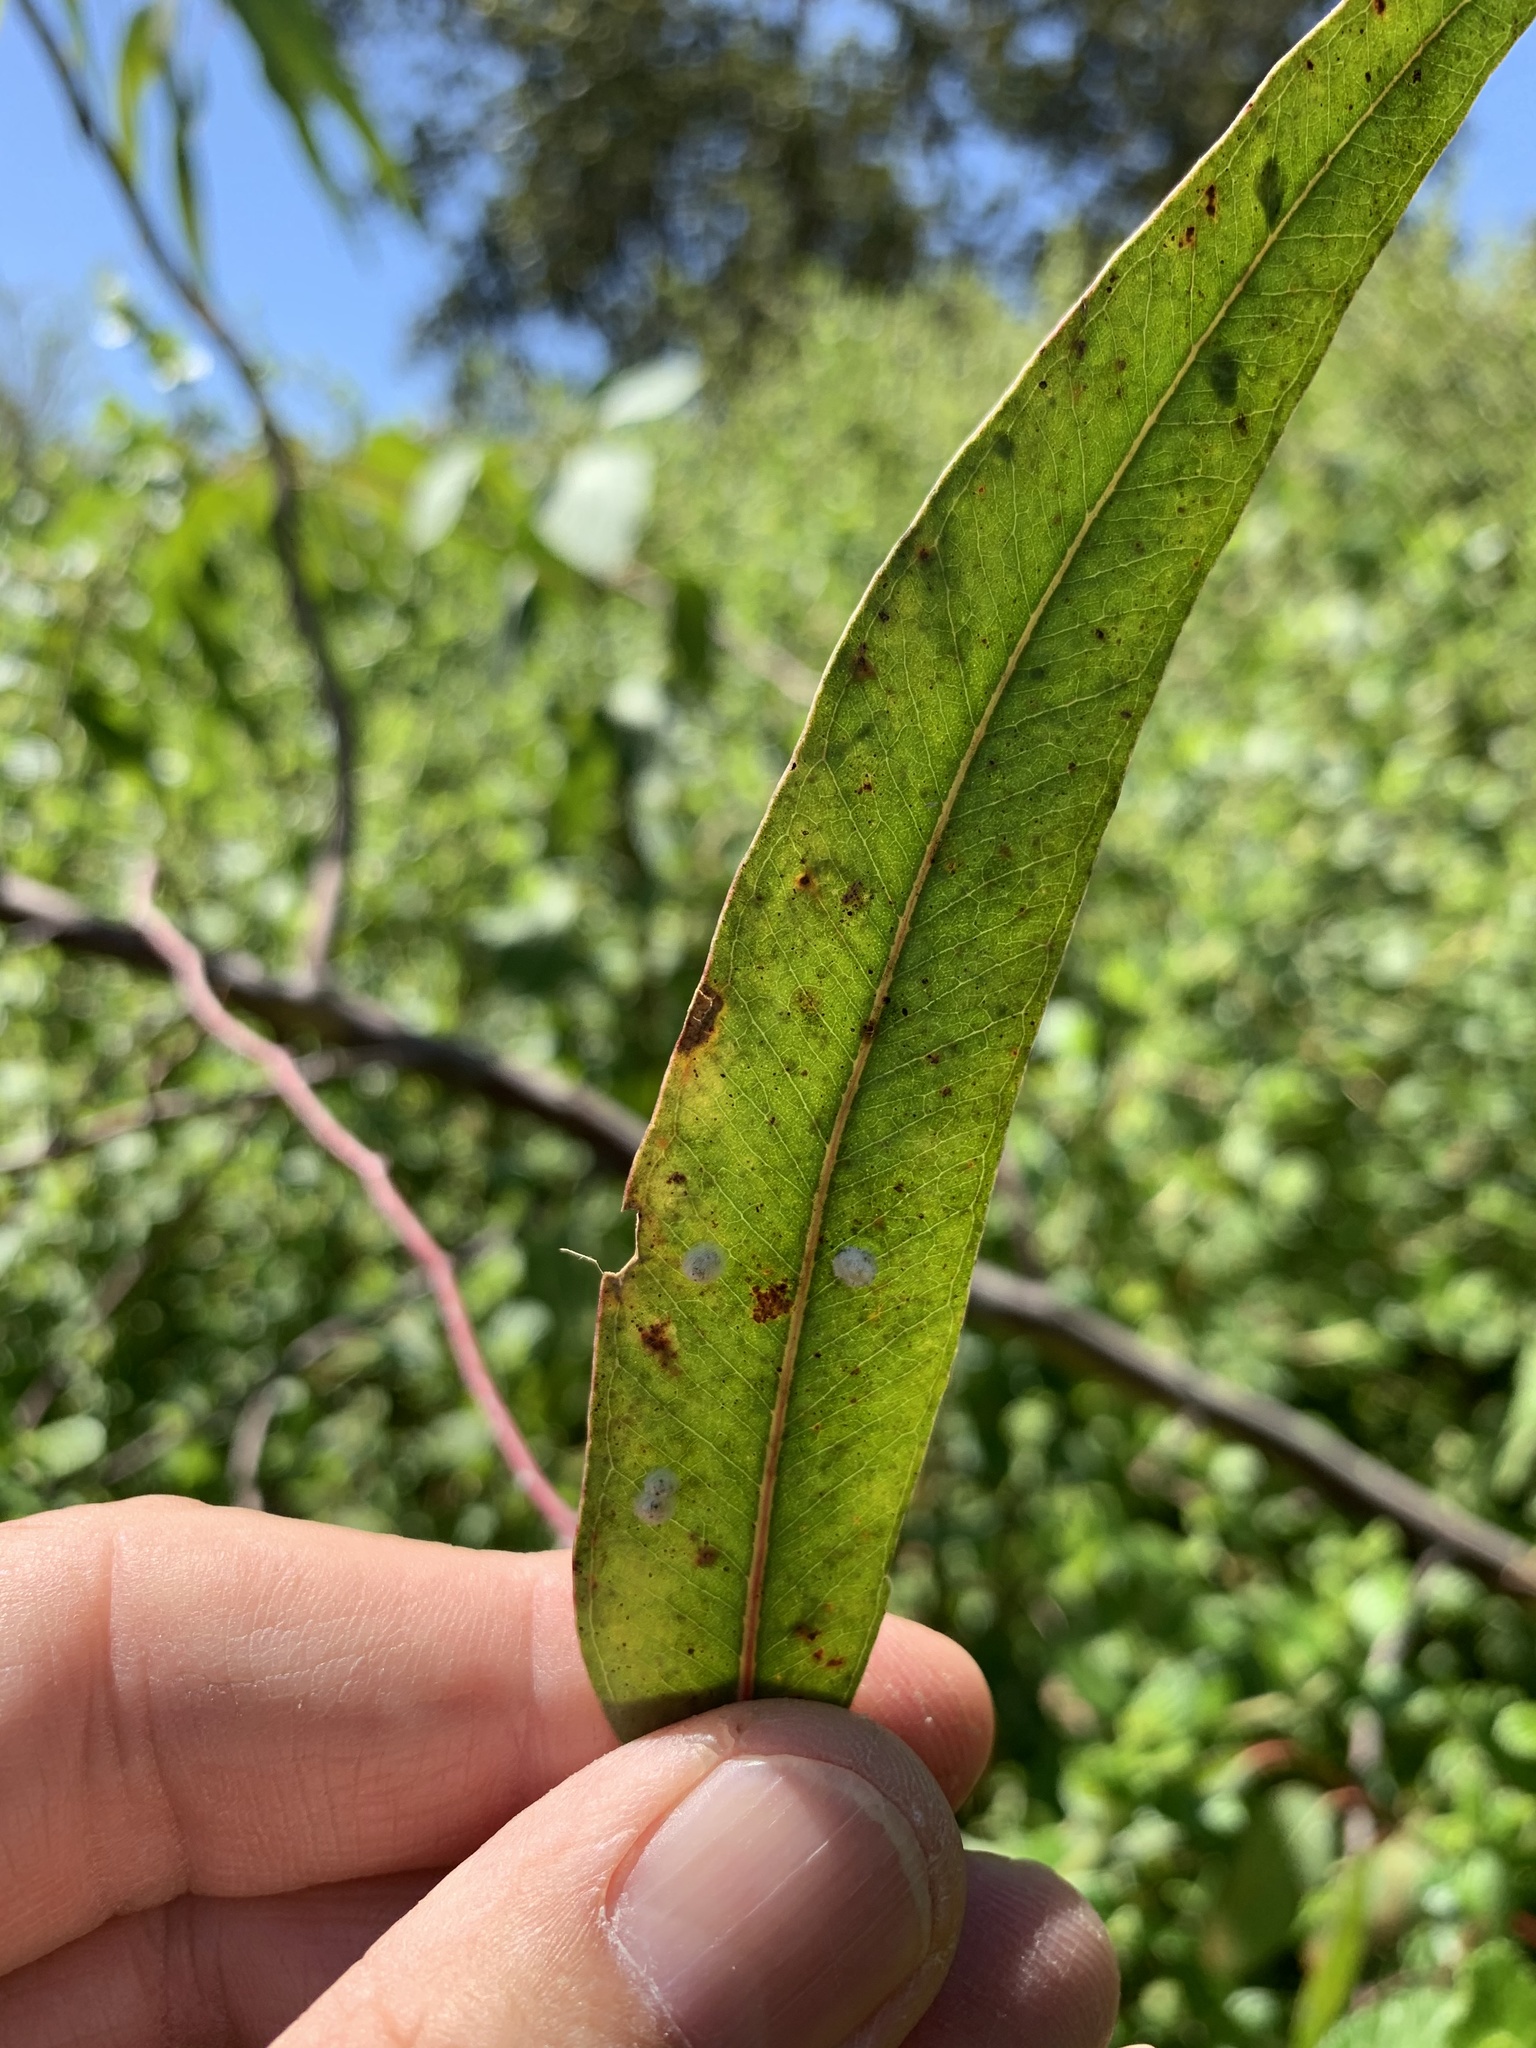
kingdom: Plantae
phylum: Tracheophyta
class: Magnoliopsida
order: Myrtales
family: Myrtaceae
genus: Eucalyptus
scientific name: Eucalyptus camaldulensis
